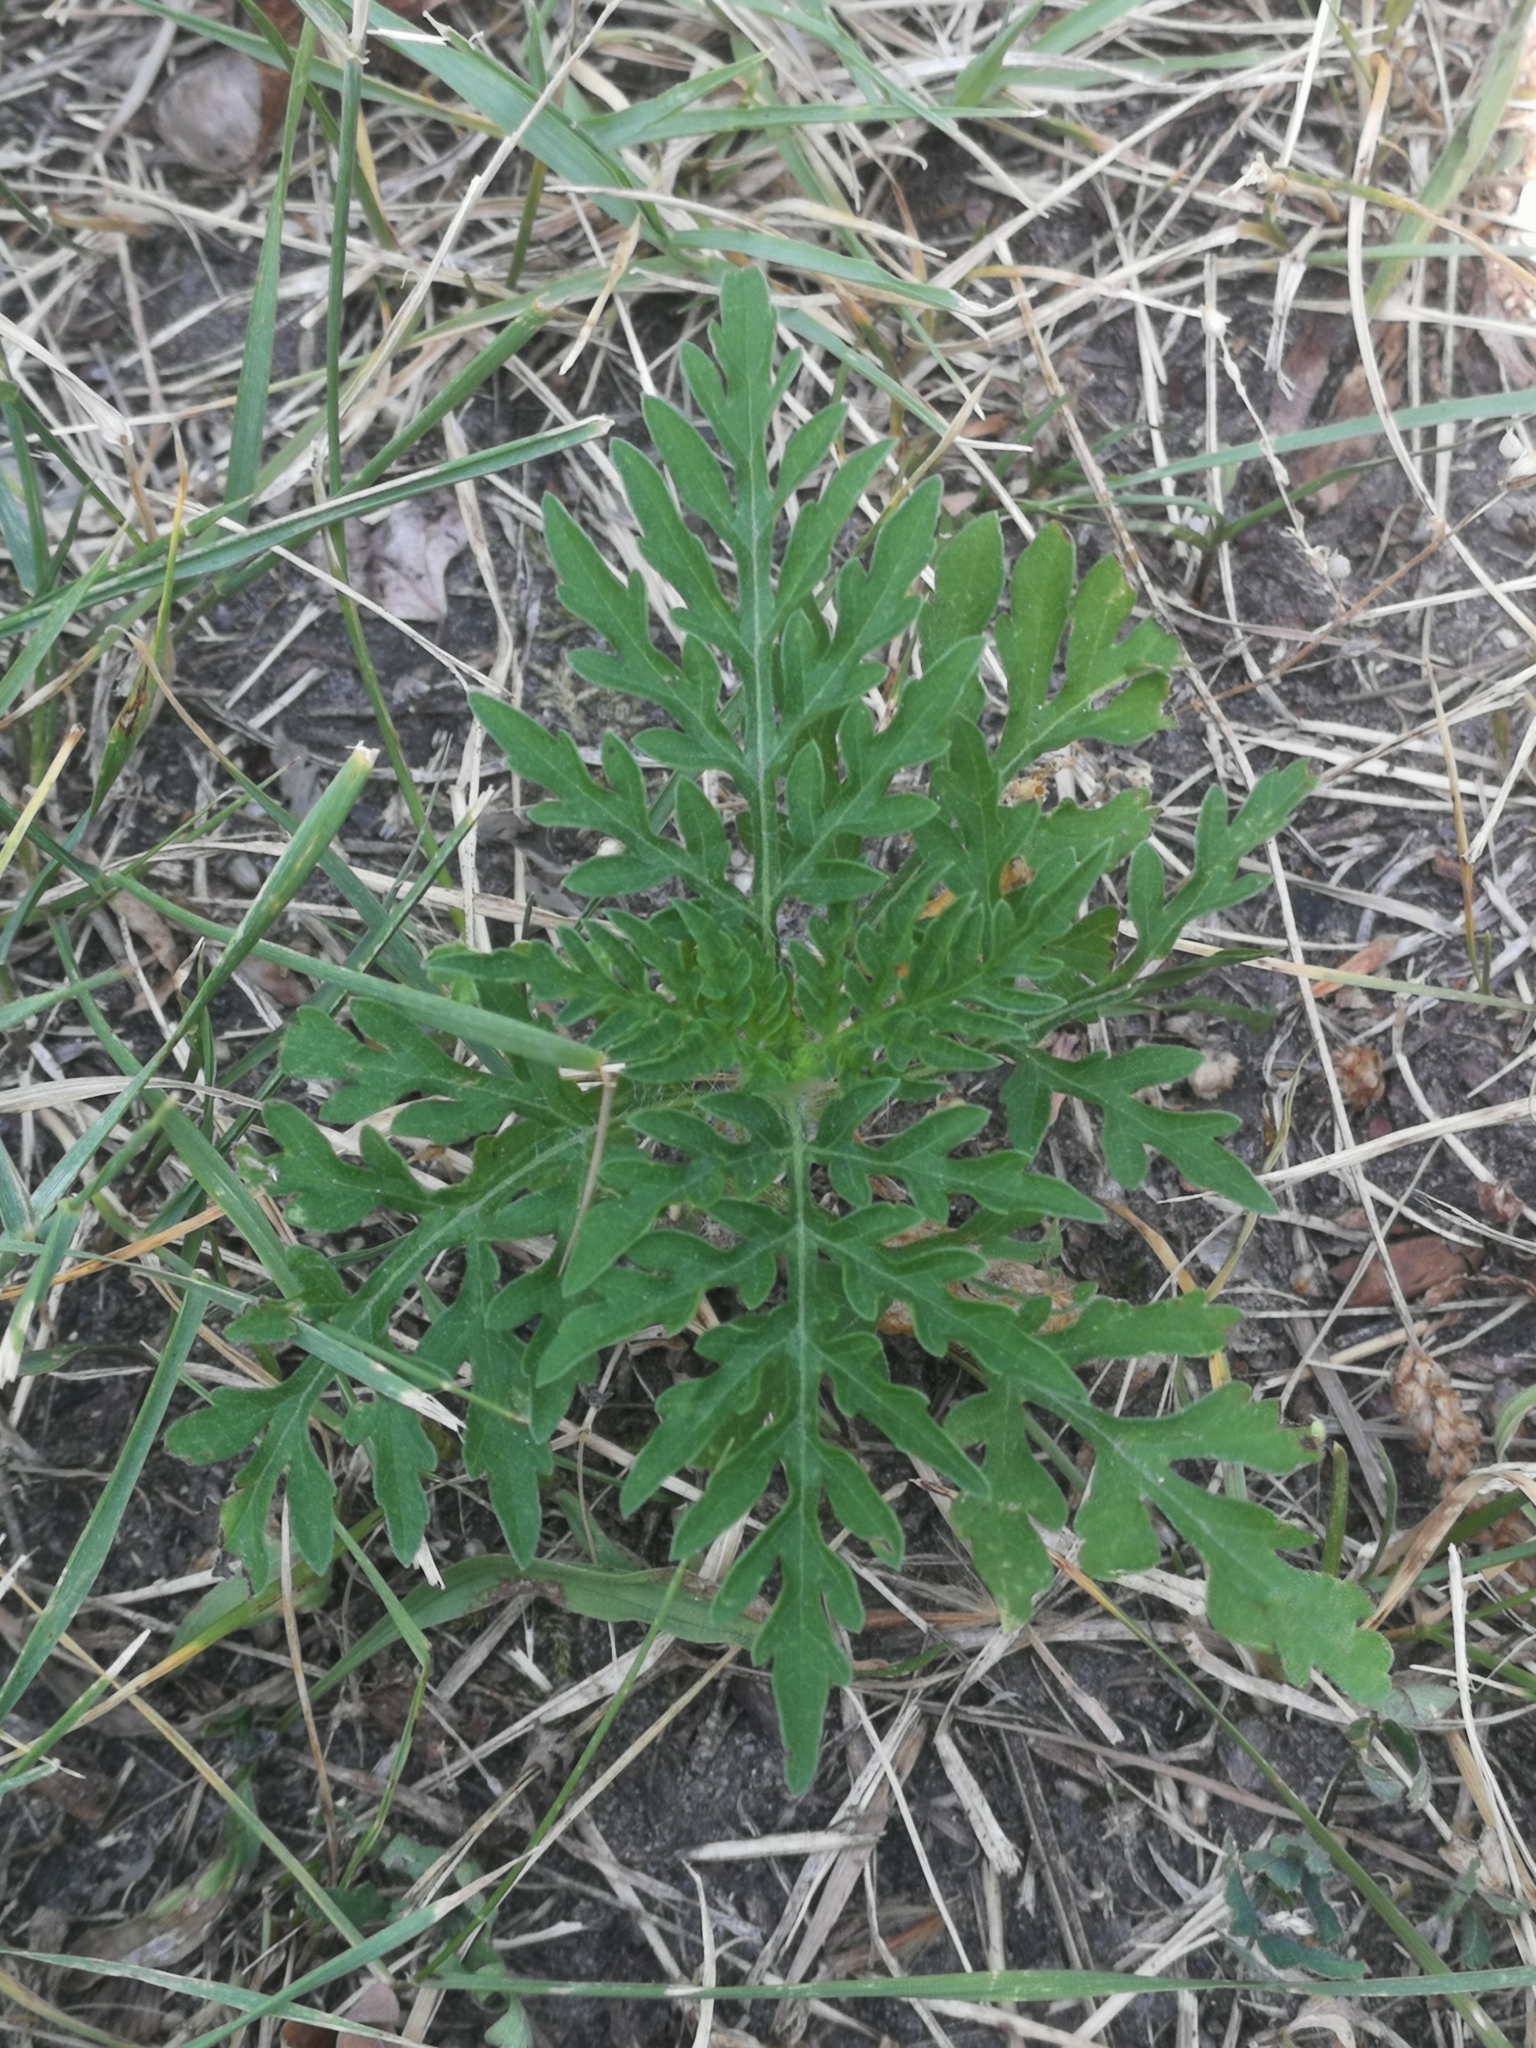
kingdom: Plantae
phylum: Tracheophyta
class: Magnoliopsida
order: Asterales
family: Asteraceae
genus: Ambrosia
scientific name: Ambrosia artemisiifolia
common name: Annual ragweed
